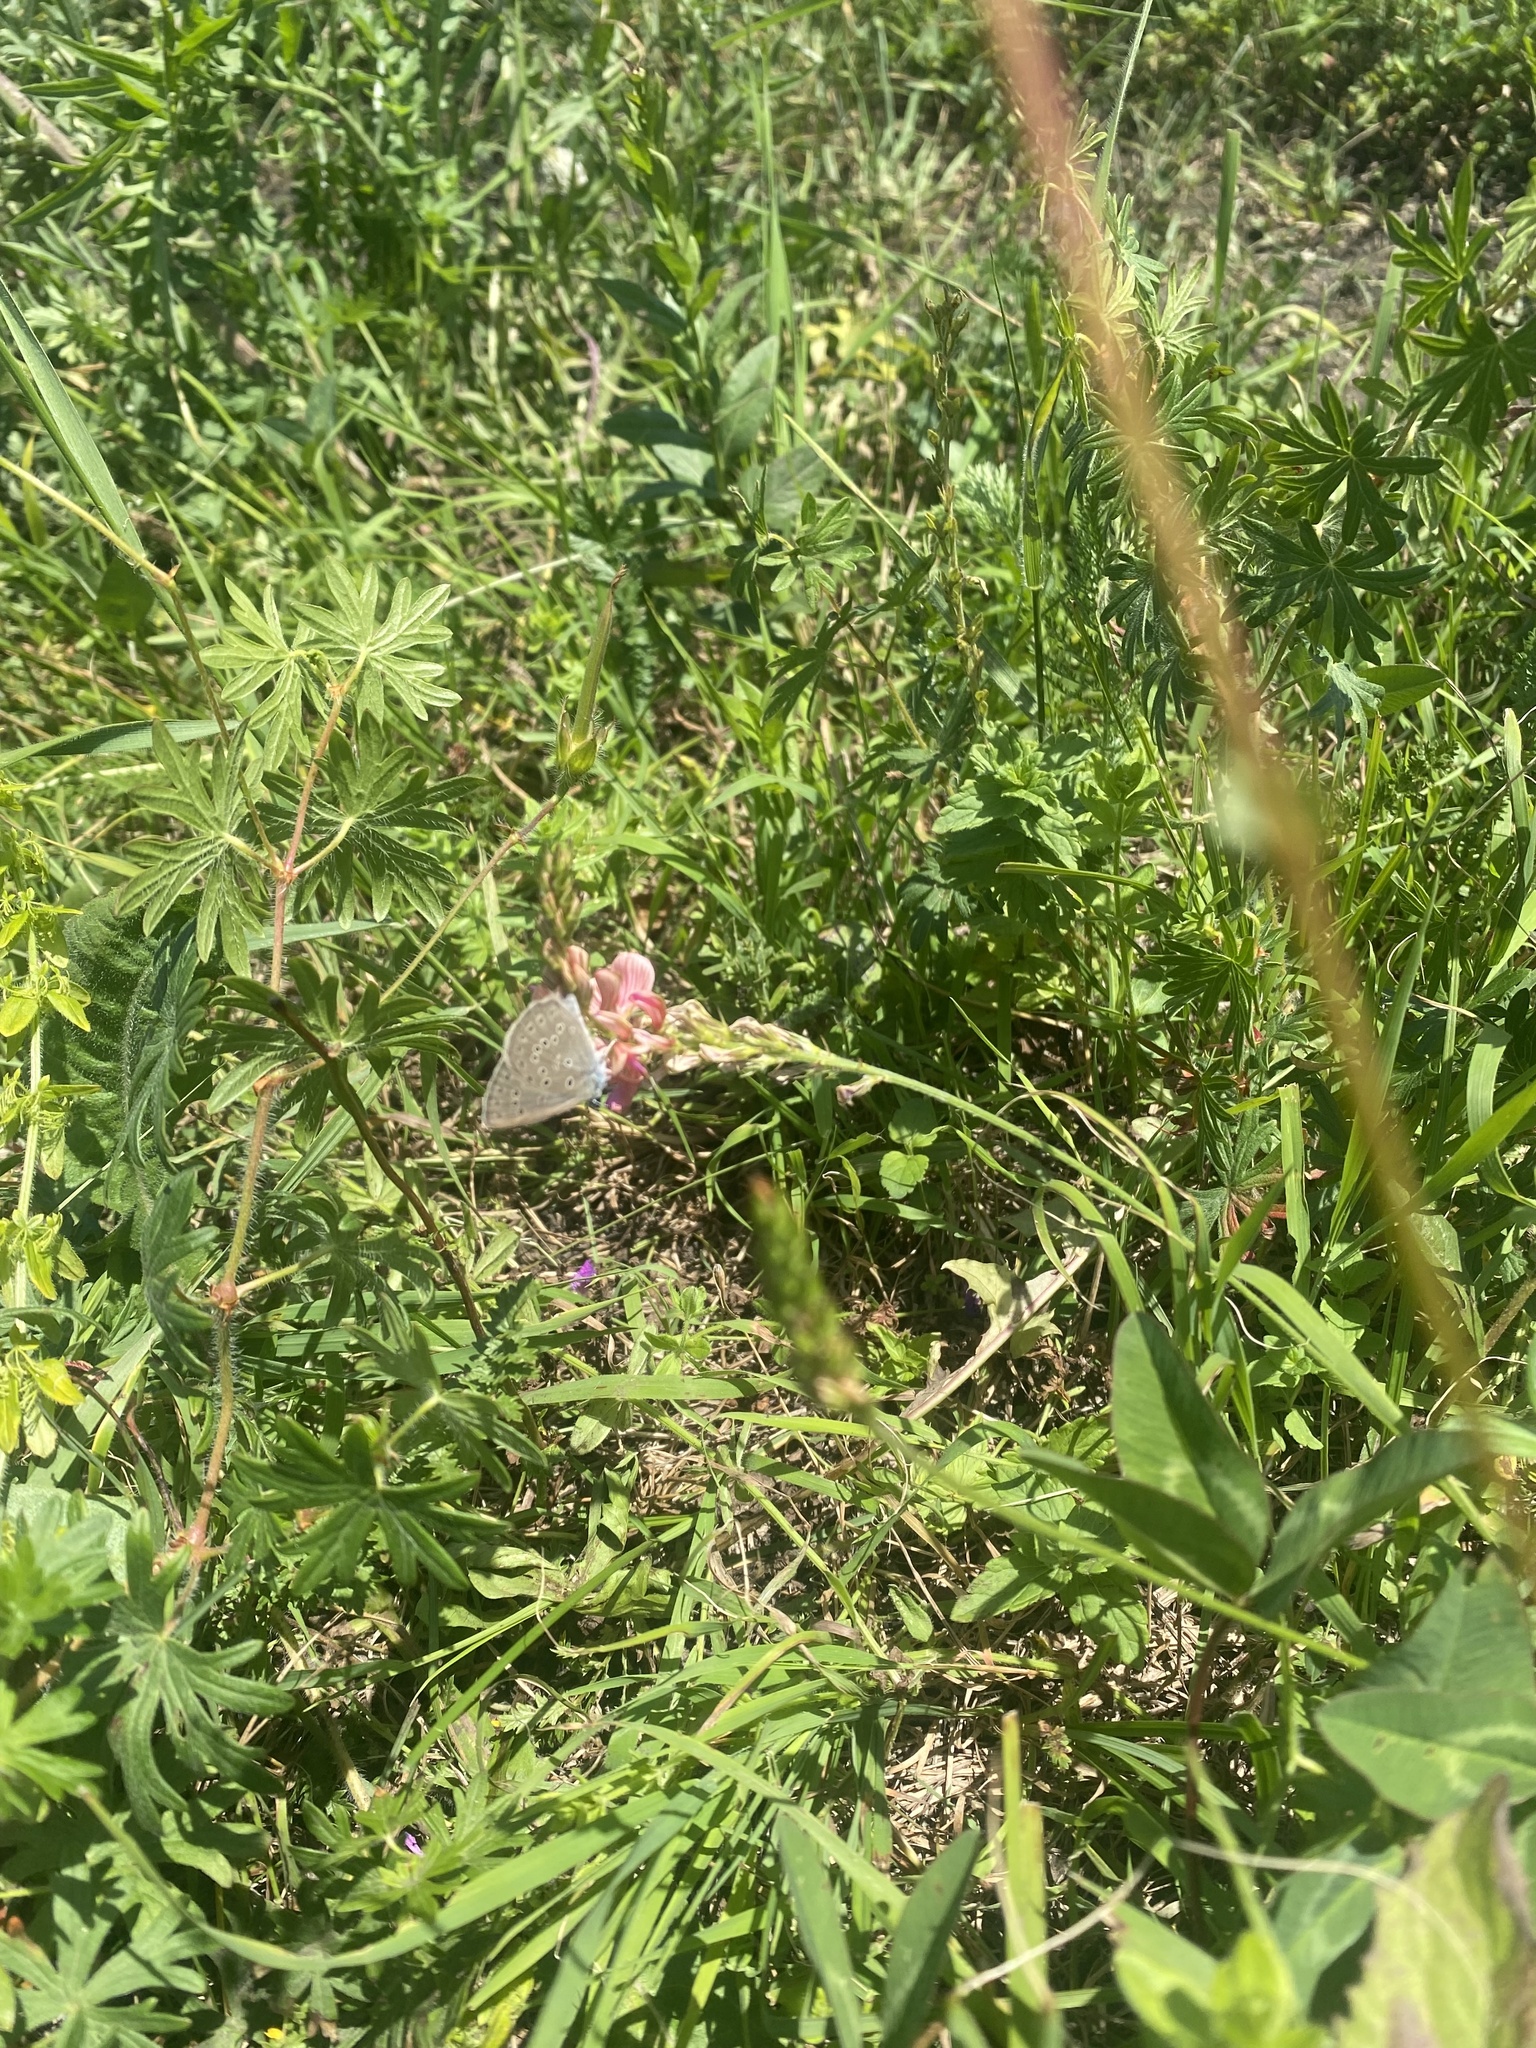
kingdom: Animalia
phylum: Arthropoda
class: Insecta
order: Lepidoptera
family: Lycaenidae
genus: Maculinea
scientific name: Maculinea alcon
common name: Alcon blue
